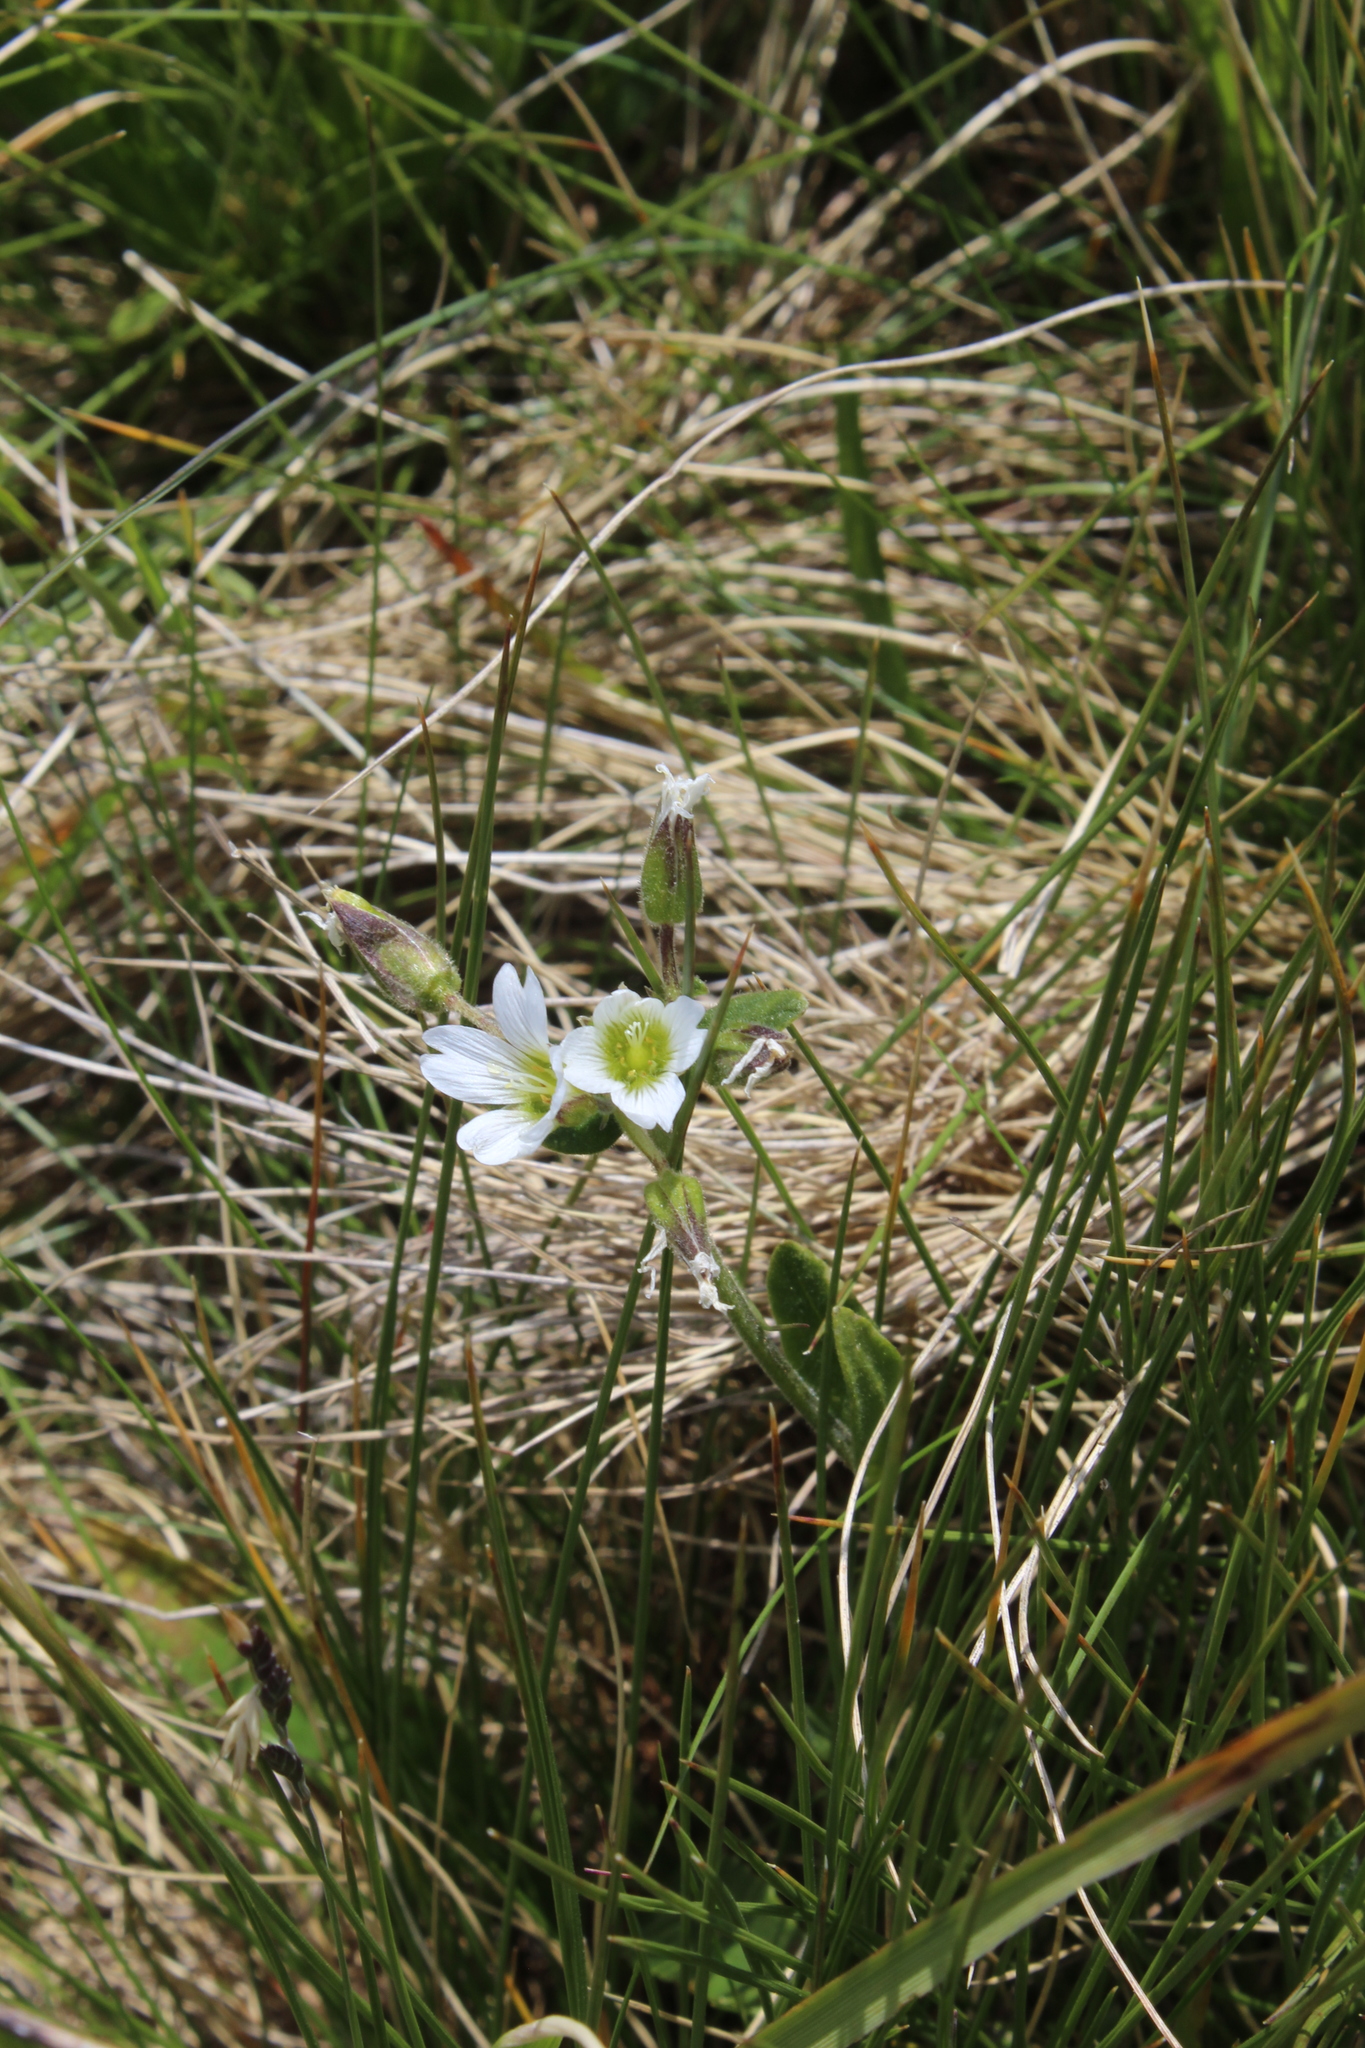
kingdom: Plantae
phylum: Tracheophyta
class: Magnoliopsida
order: Caryophyllales
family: Caryophyllaceae
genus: Cerastium
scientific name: Cerastium purpurascens
